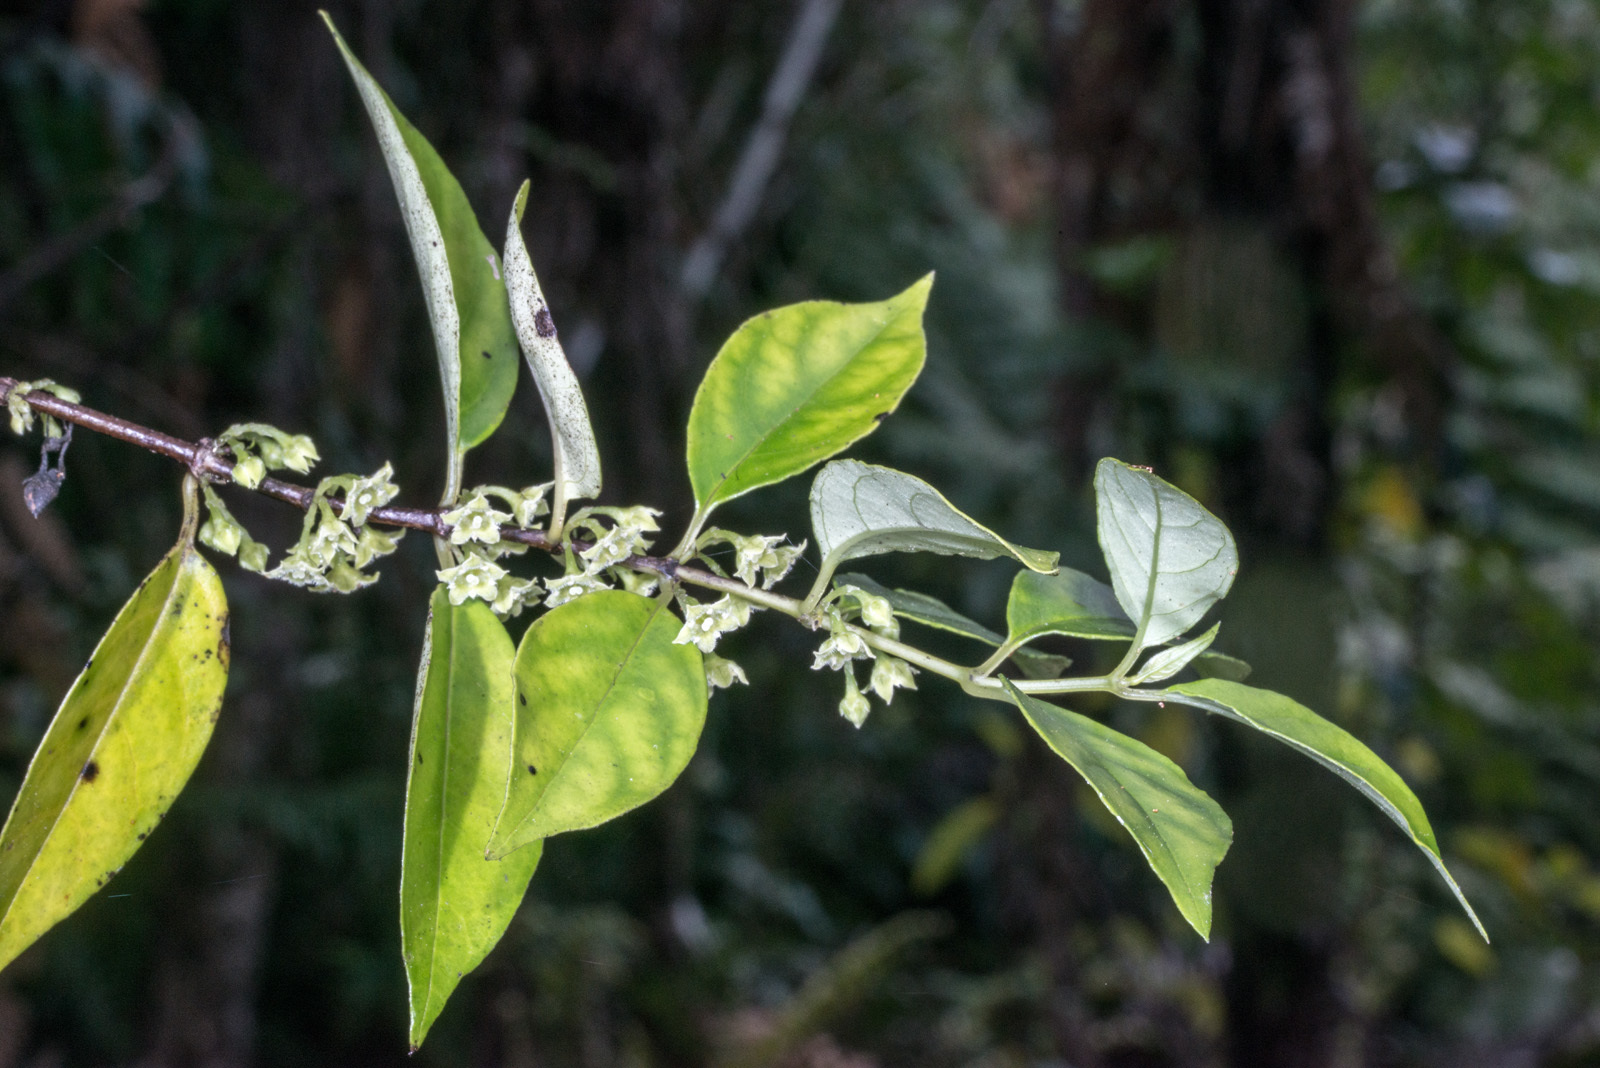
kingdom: Plantae
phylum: Tracheophyta
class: Magnoliopsida
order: Gentianales
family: Loganiaceae
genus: Geniostoma
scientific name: Geniostoma ligustrifolium
